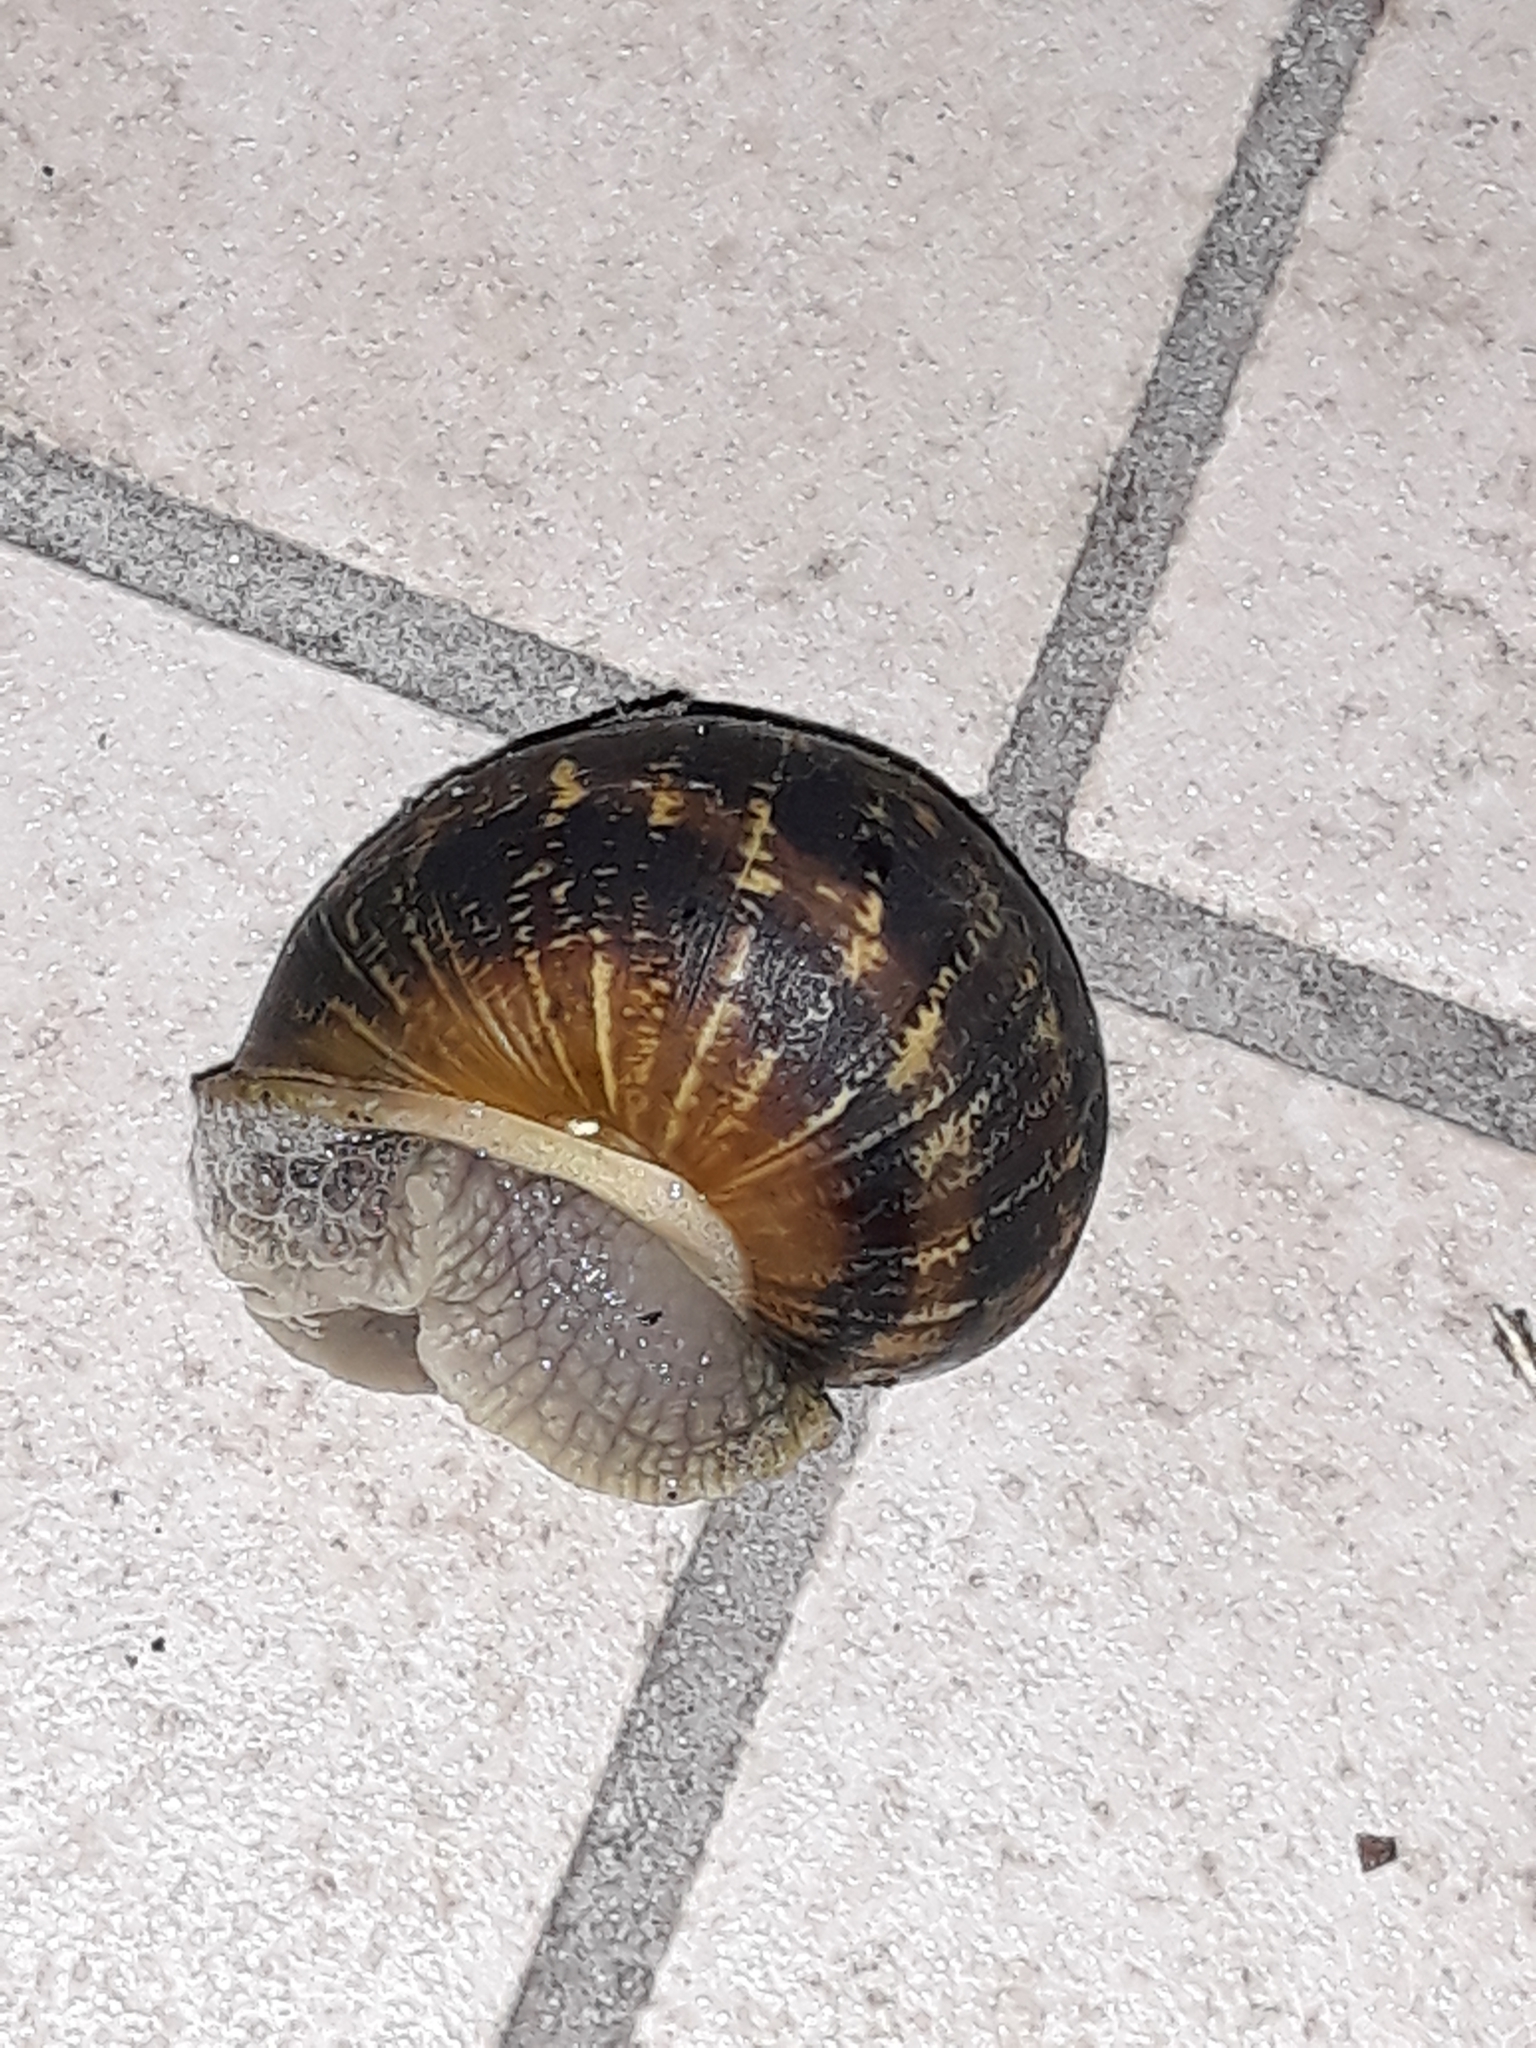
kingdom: Animalia
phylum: Mollusca
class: Gastropoda
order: Stylommatophora
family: Helicidae
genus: Cornu
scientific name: Cornu aspersum
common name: Brown garden snail
